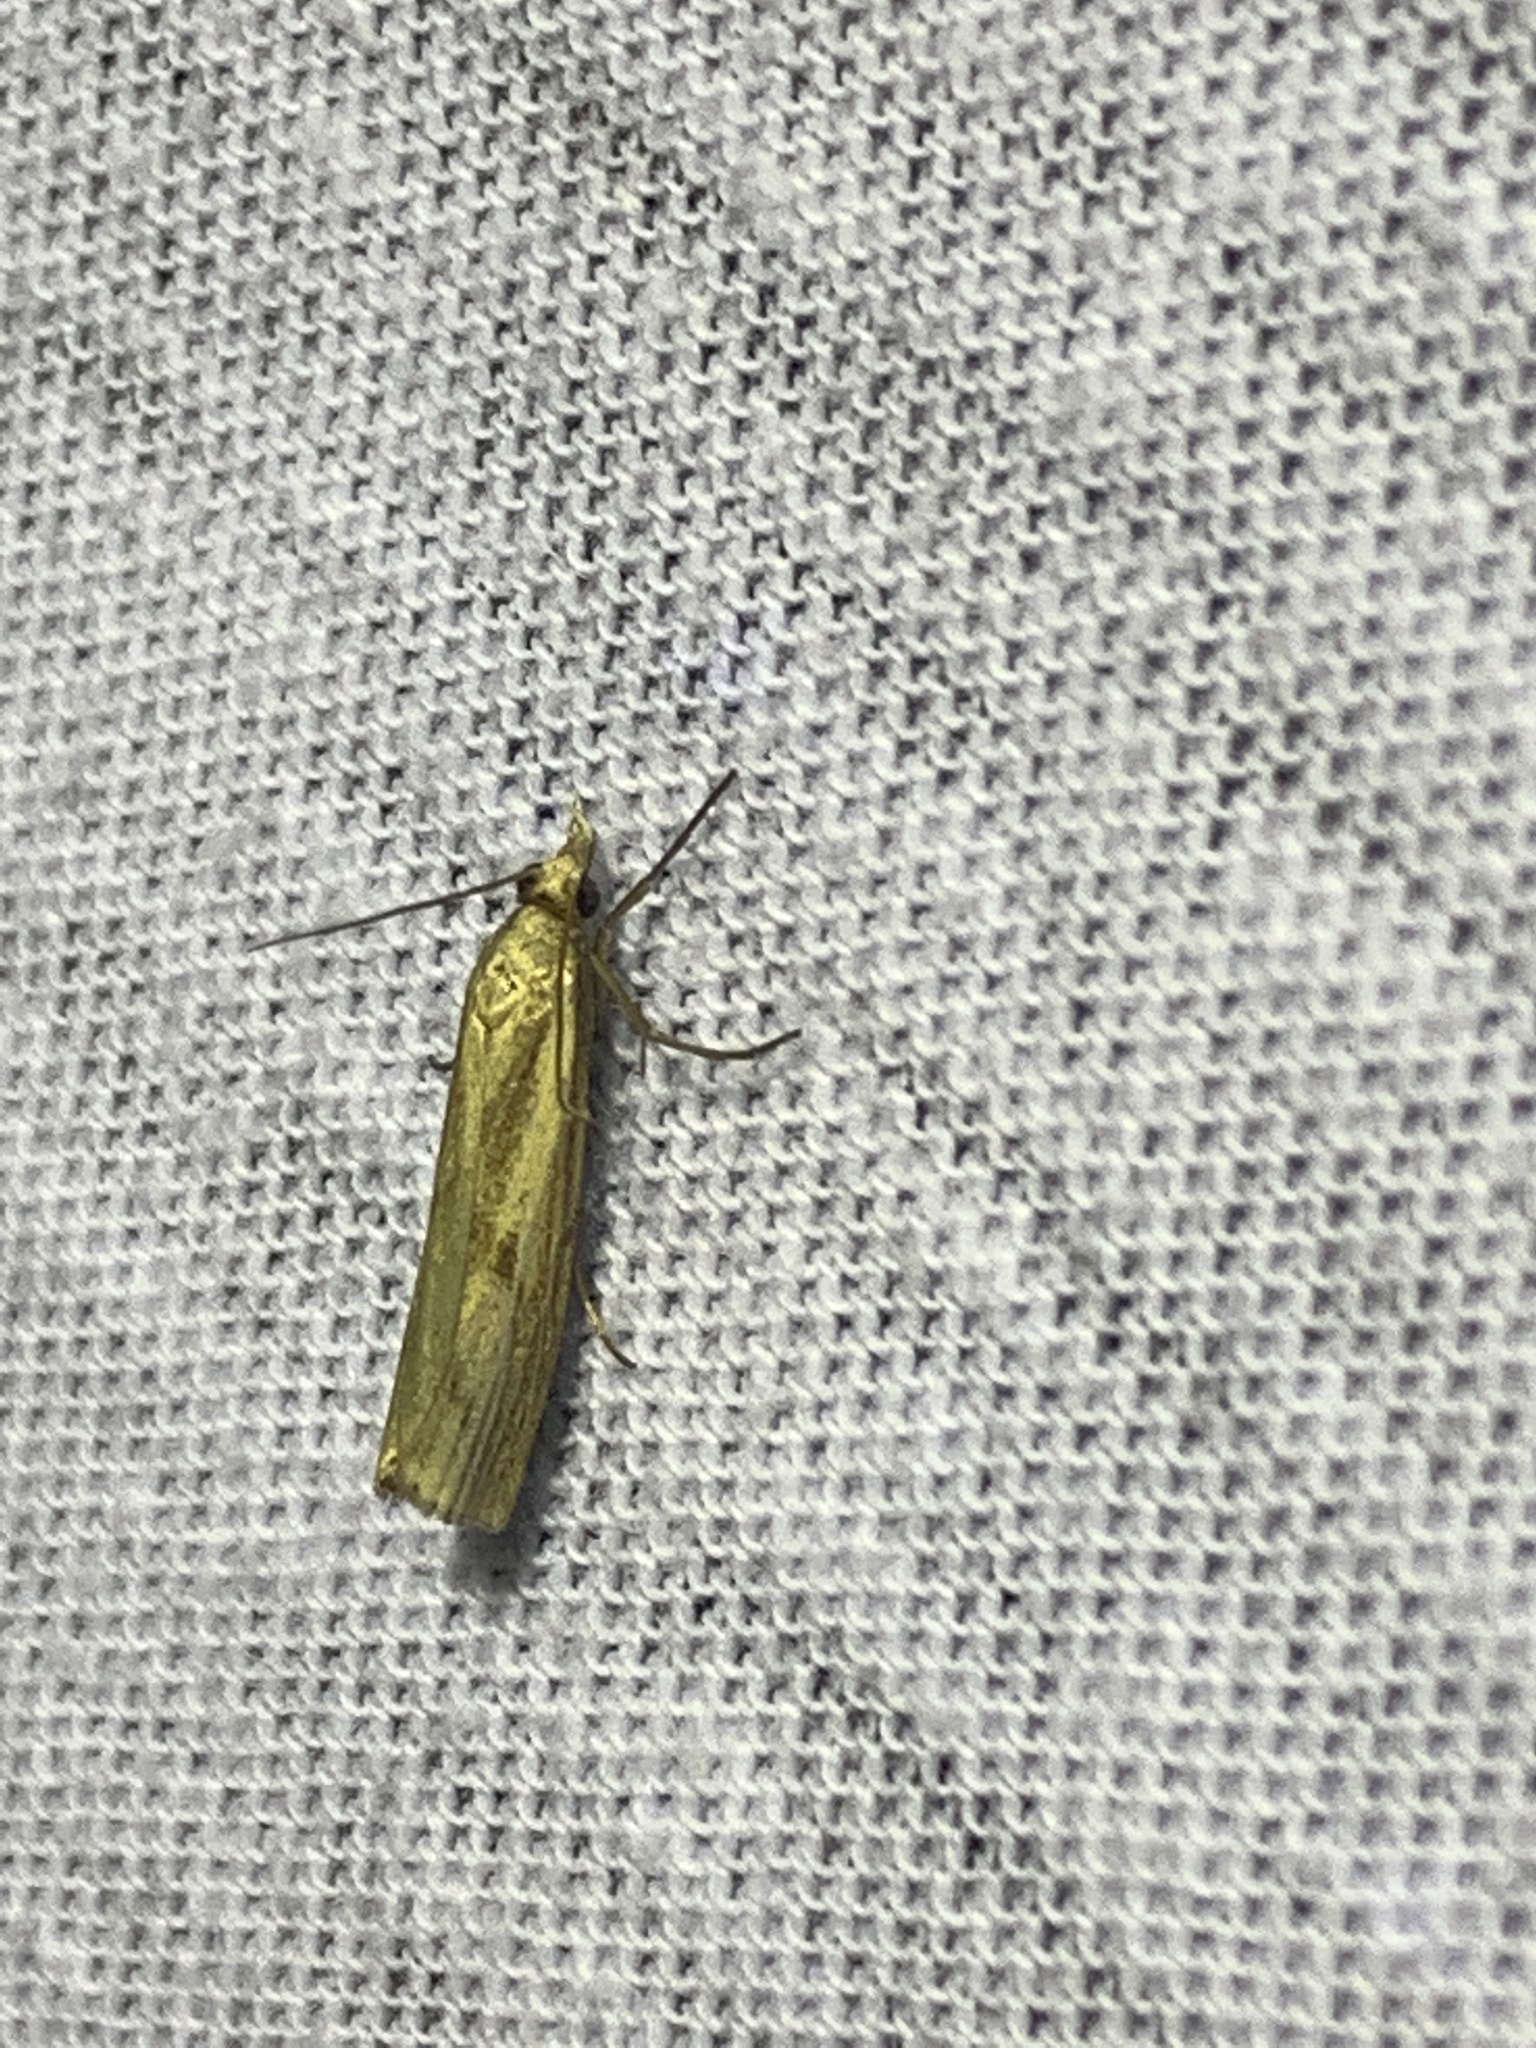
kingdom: Animalia
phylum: Arthropoda
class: Insecta
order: Lepidoptera
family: Crambidae
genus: Agriphila
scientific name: Agriphila geniculea
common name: Elbow-stripe grass-veneer
